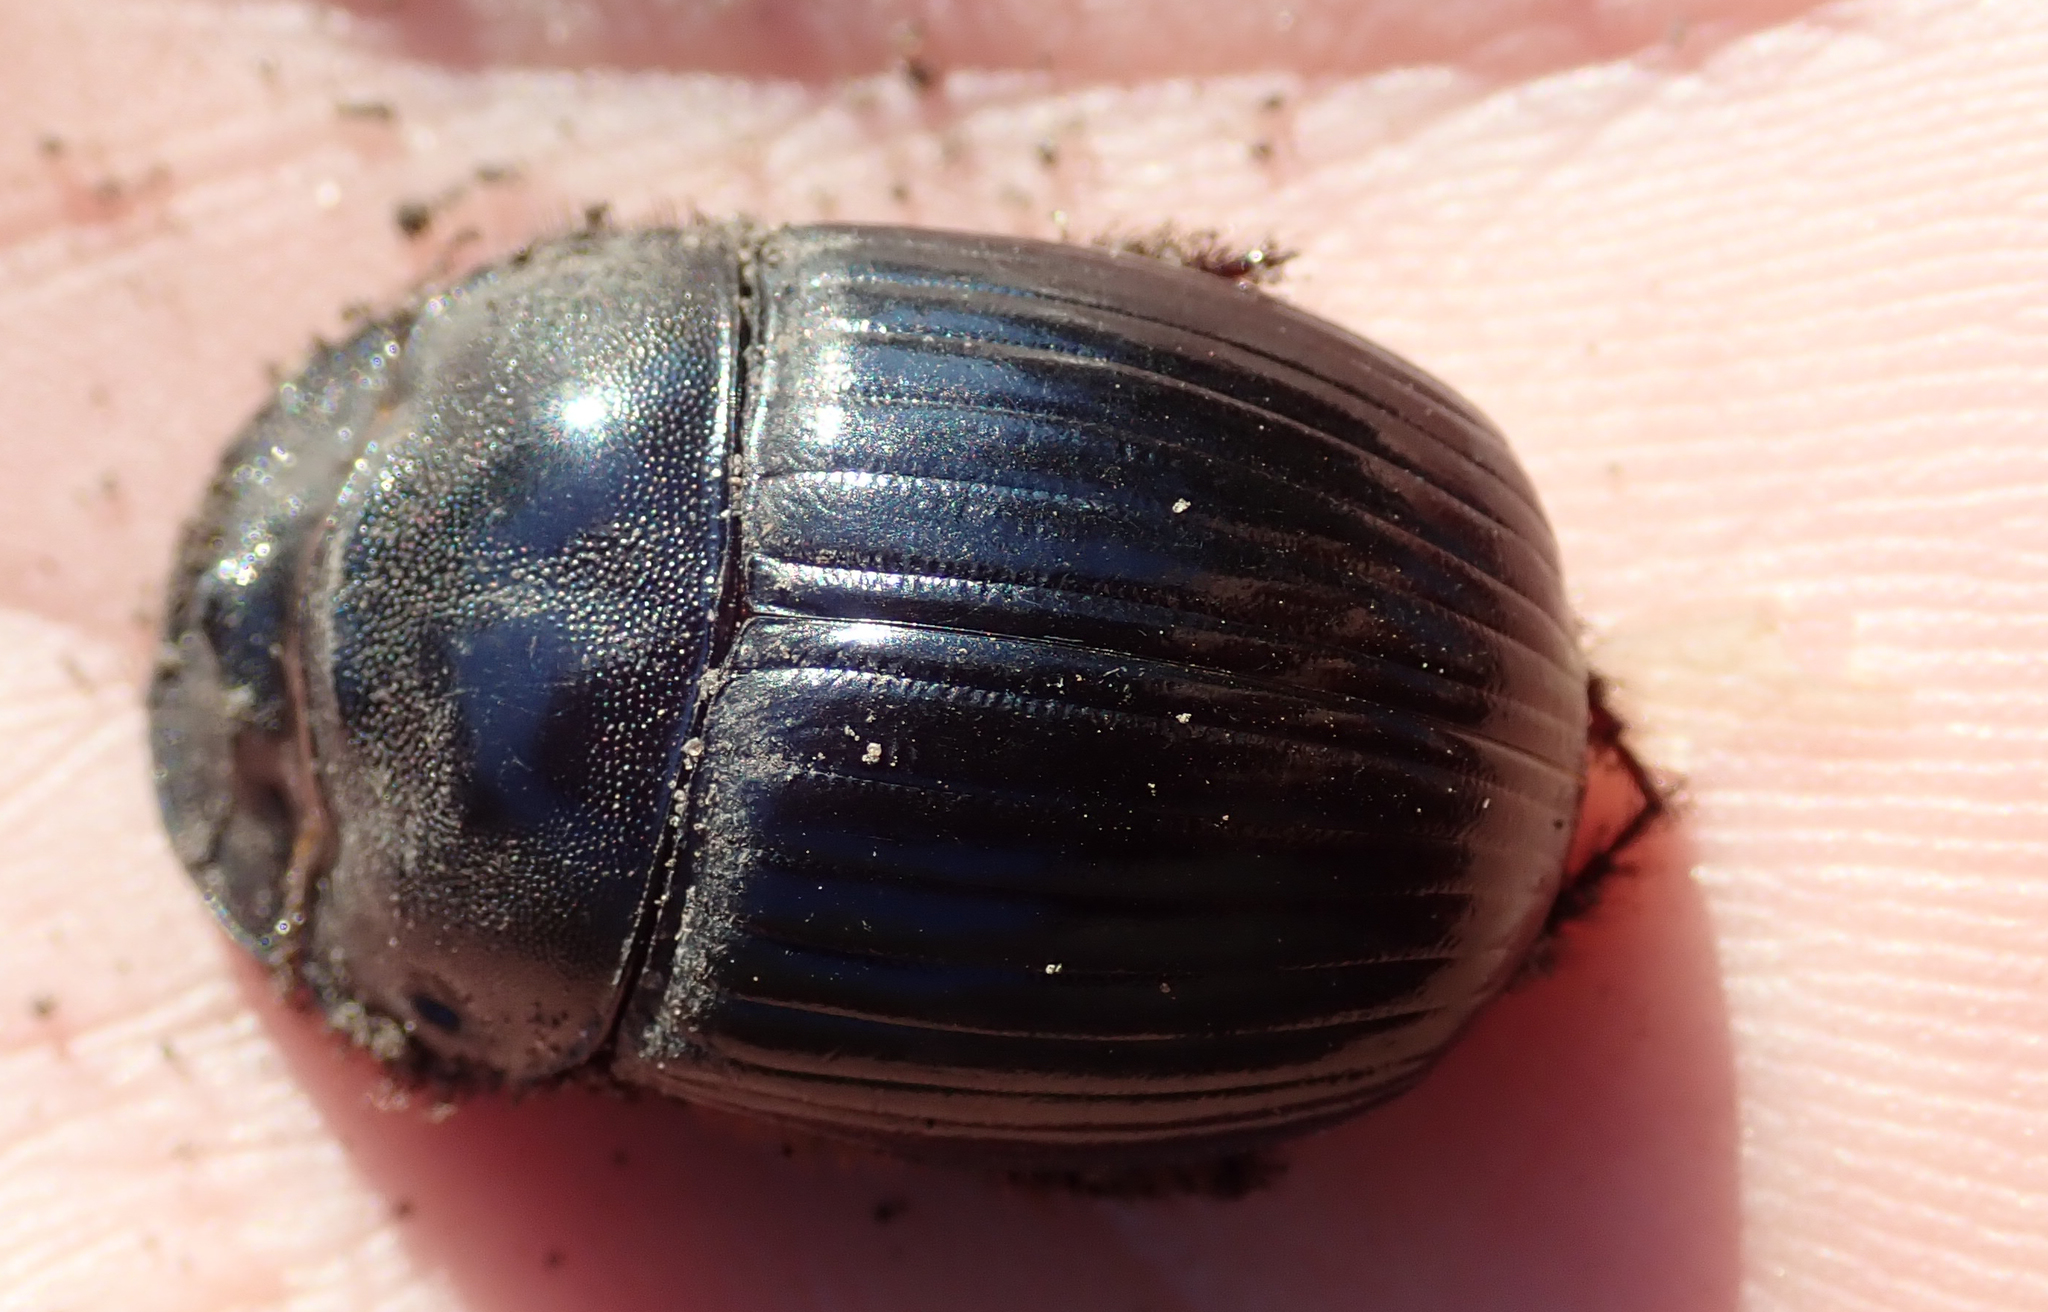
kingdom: Animalia
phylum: Arthropoda
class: Insecta
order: Coleoptera
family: Scarabaeidae
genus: Catharsius
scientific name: Catharsius tricornutus
